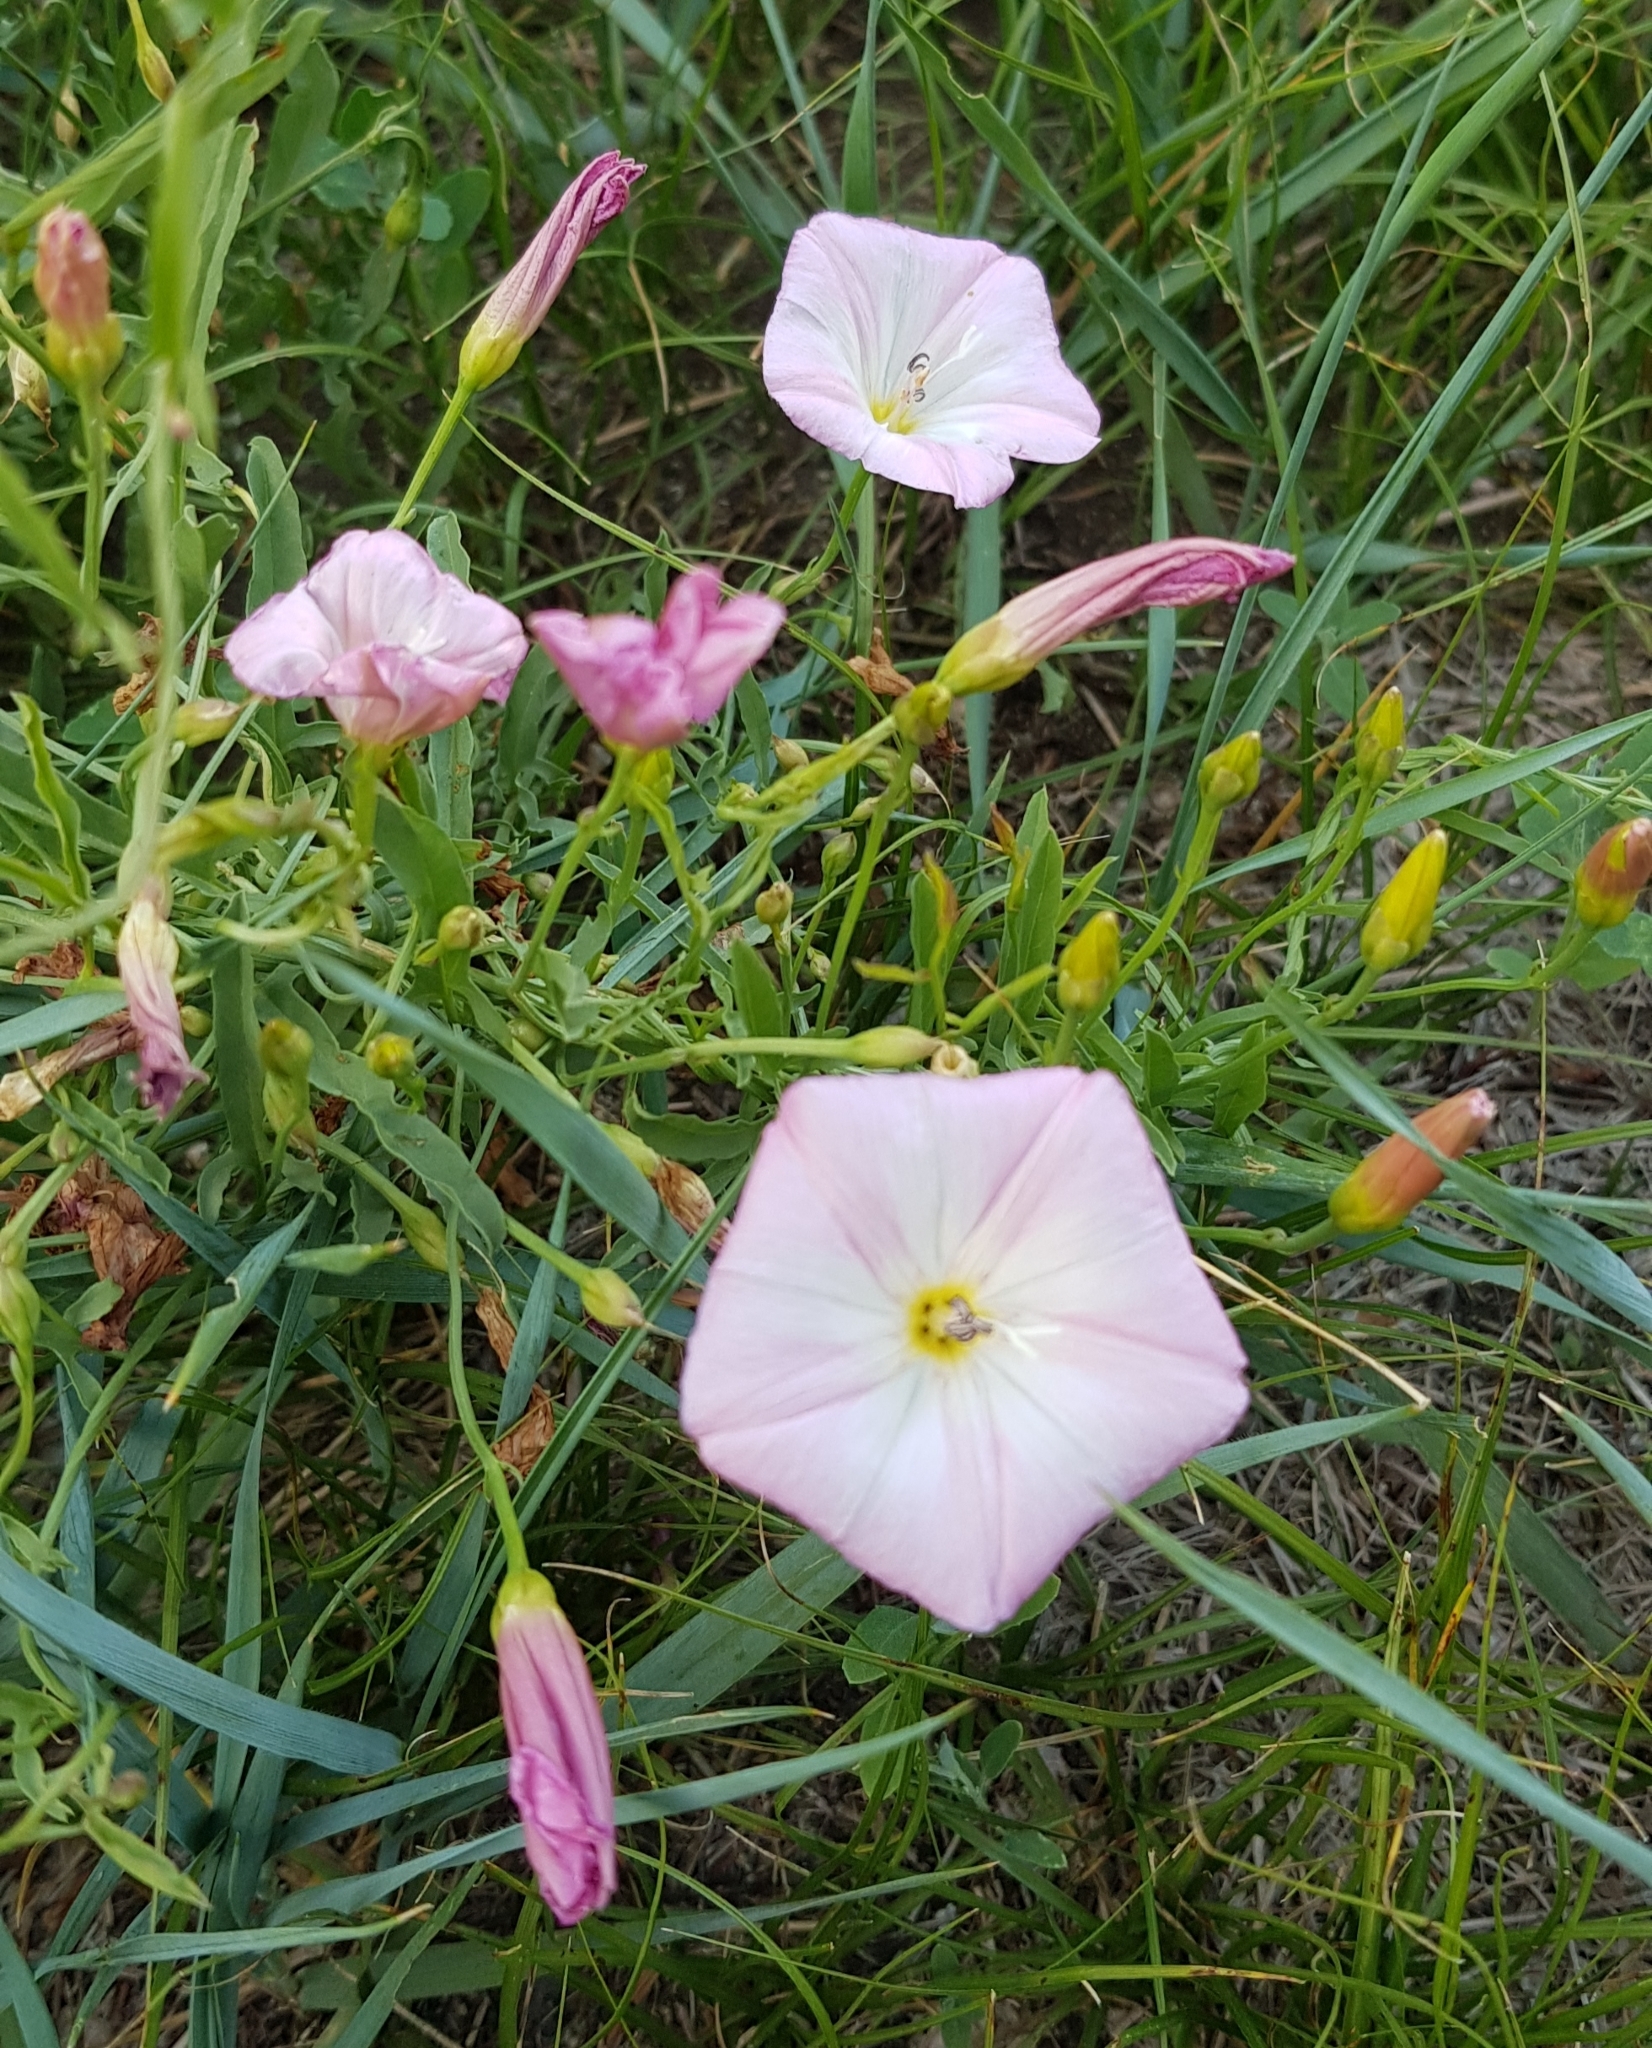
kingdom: Plantae
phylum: Tracheophyta
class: Magnoliopsida
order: Solanales
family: Convolvulaceae
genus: Convolvulus
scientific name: Convolvulus arvensis
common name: Field bindweed
